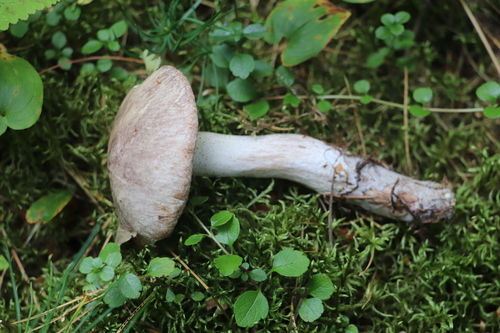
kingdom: Fungi
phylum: Basidiomycota
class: Agaricomycetes
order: Boletales
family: Suillaceae
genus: Suillus
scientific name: Suillus
